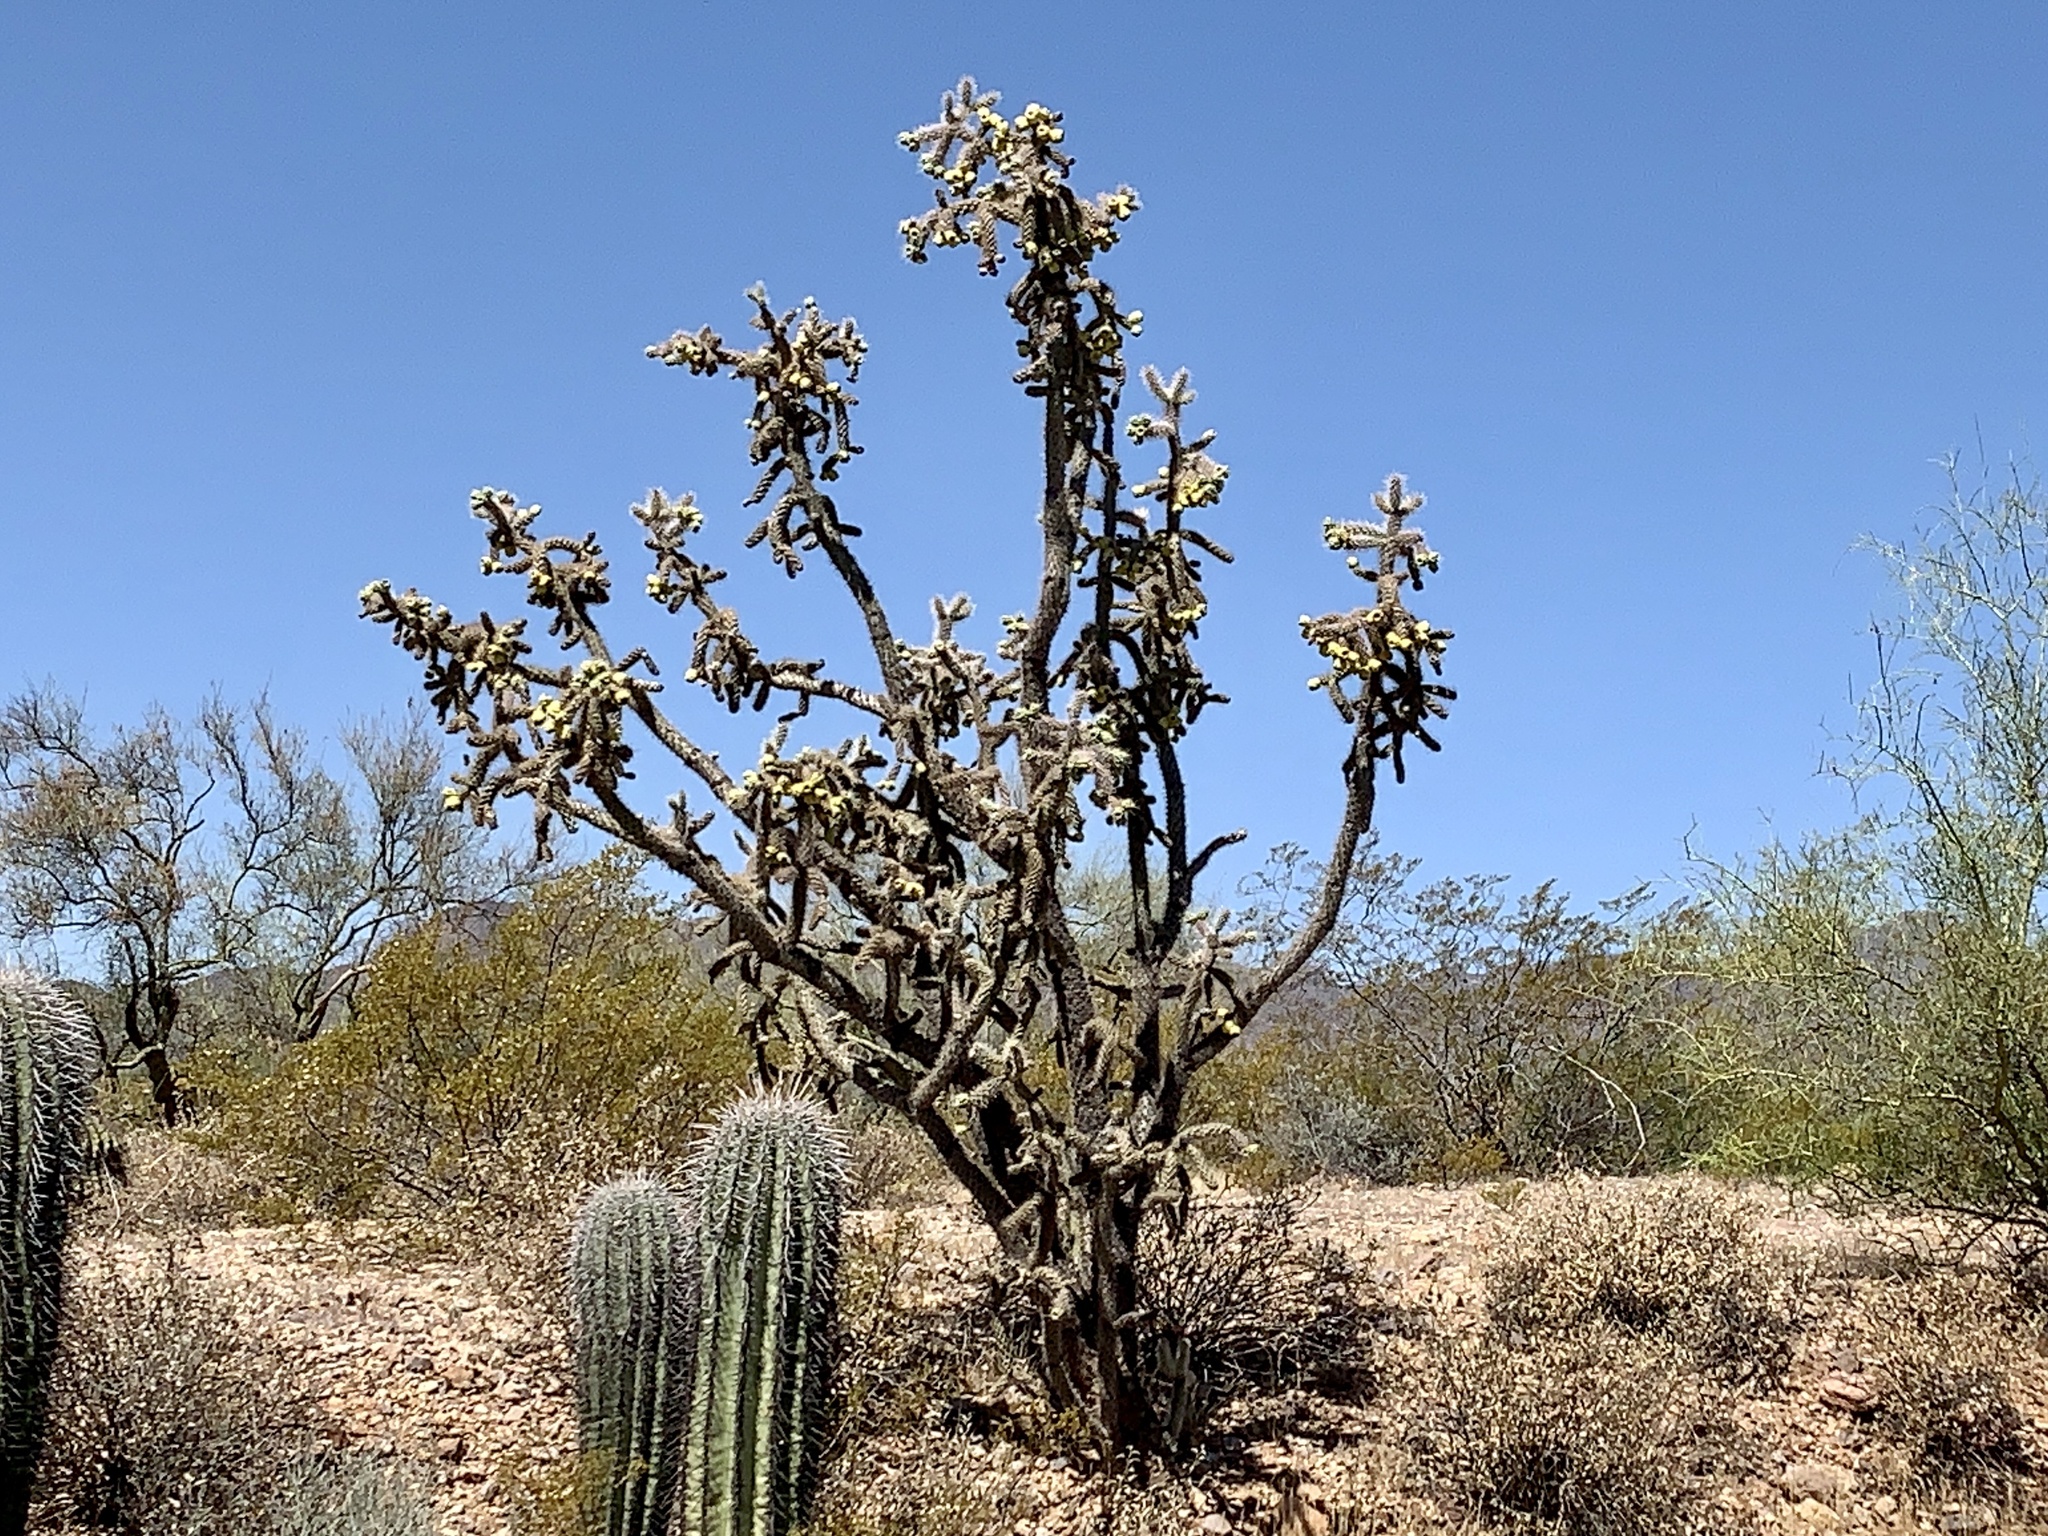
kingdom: Plantae
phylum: Tracheophyta
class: Magnoliopsida
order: Caryophyllales
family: Cactaceae
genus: Cylindropuntia
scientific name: Cylindropuntia imbricata
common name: Candelabrum cactus
